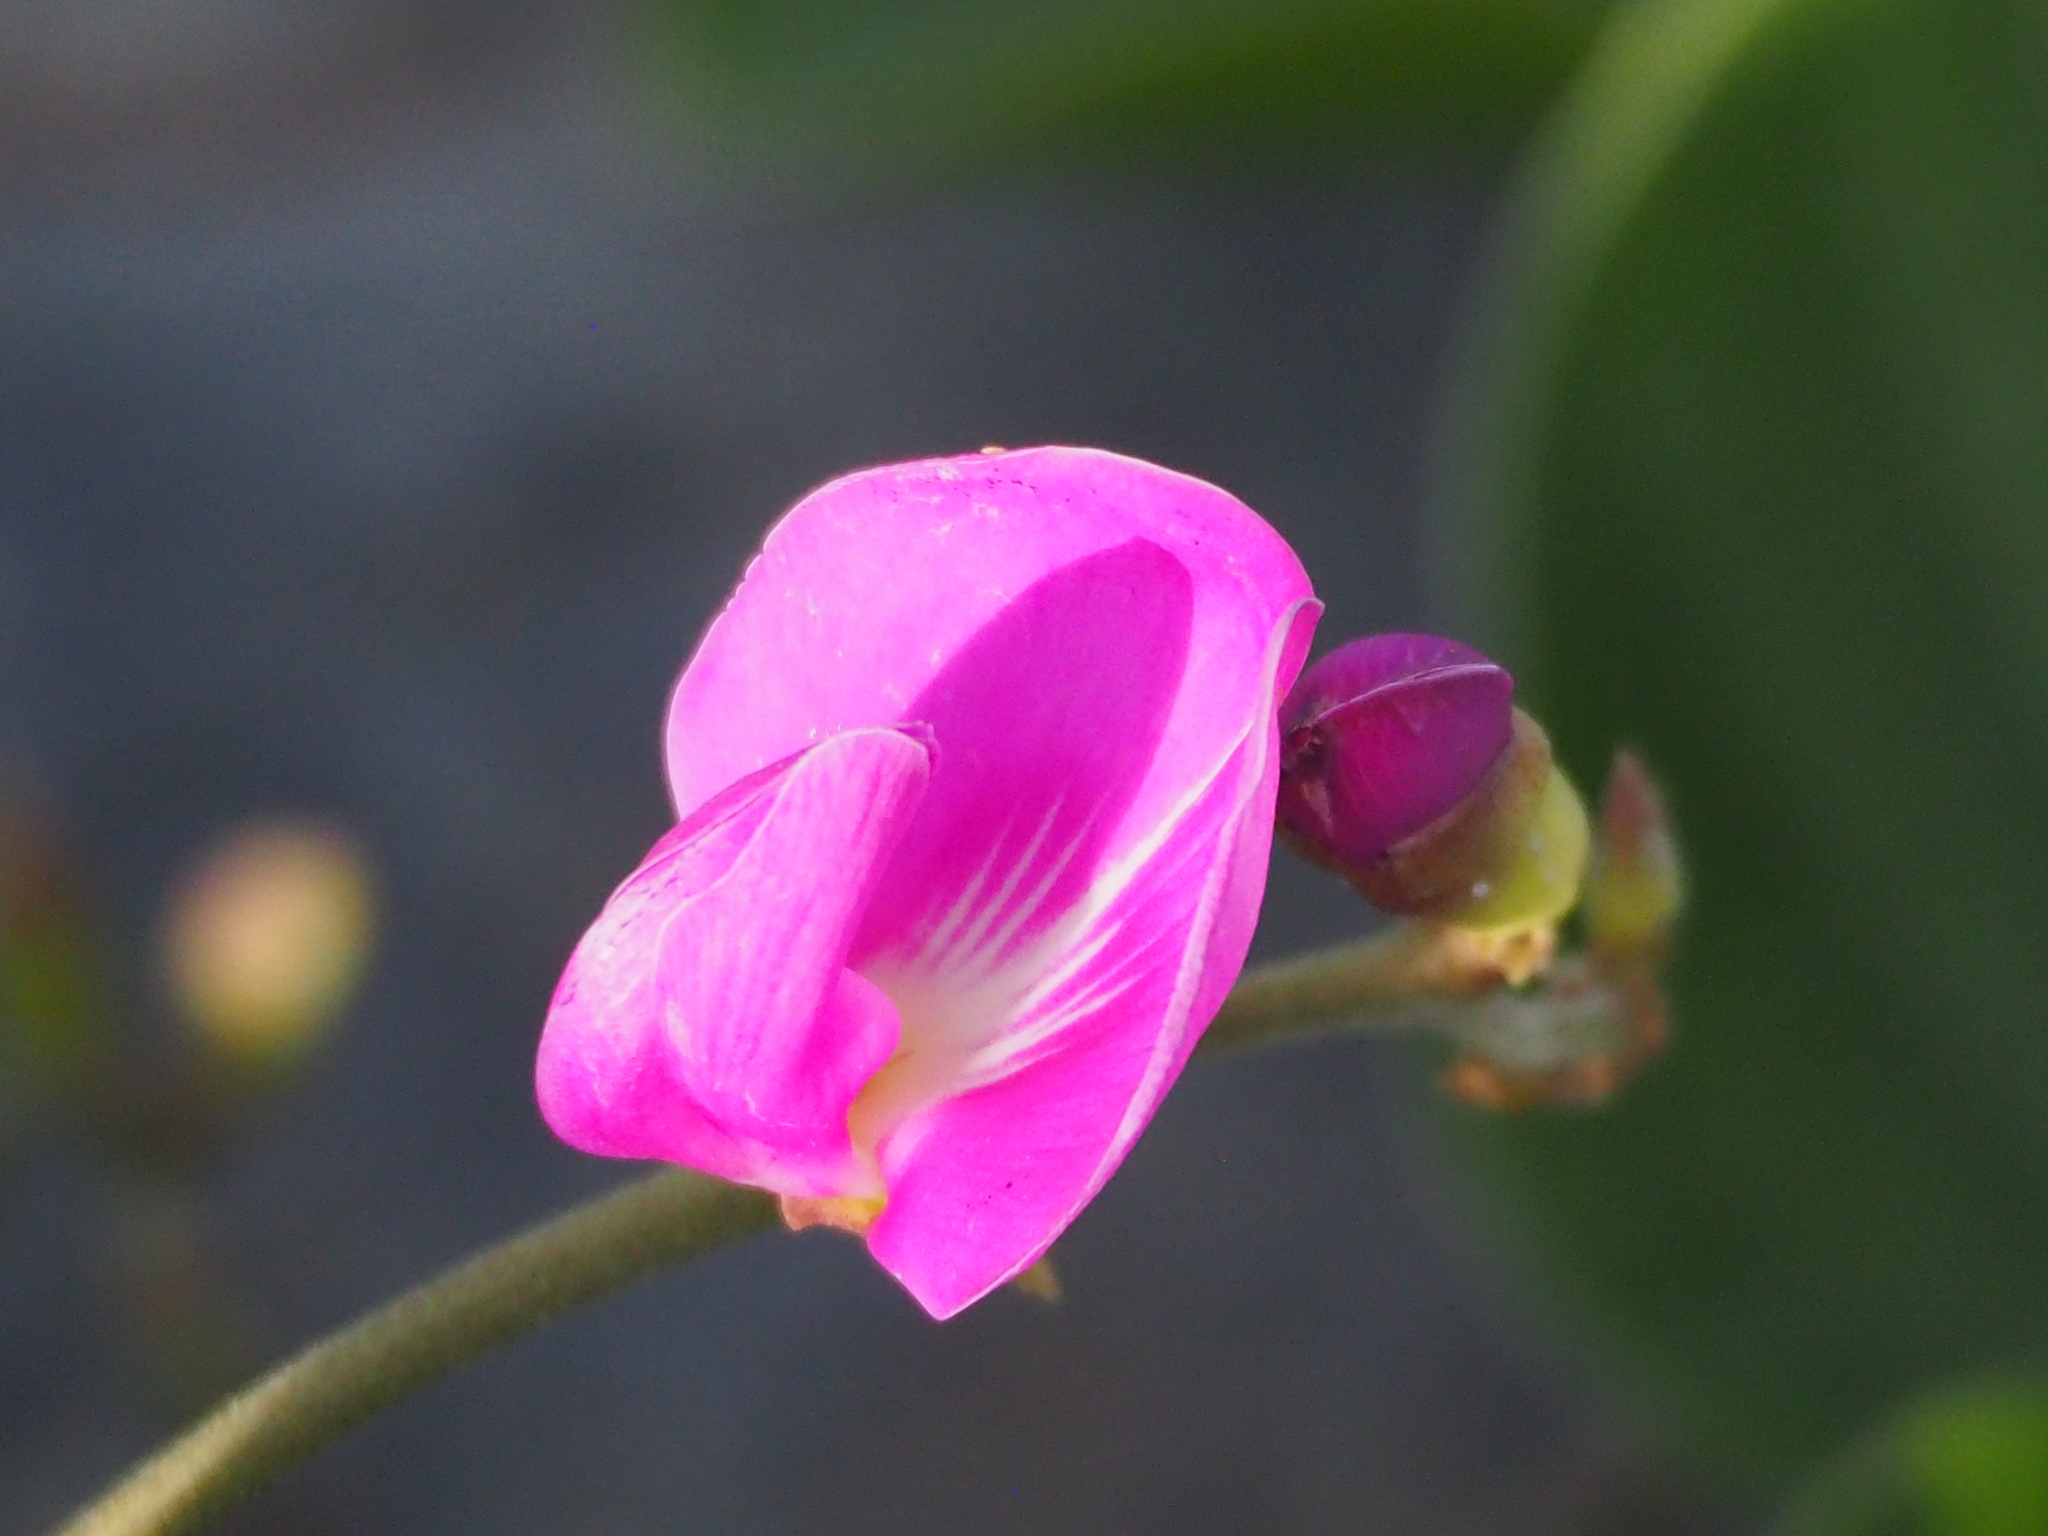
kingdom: Plantae
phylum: Tracheophyta
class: Magnoliopsida
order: Fabales
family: Fabaceae
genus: Canavalia
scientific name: Canavalia rosea
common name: Beach-bean
